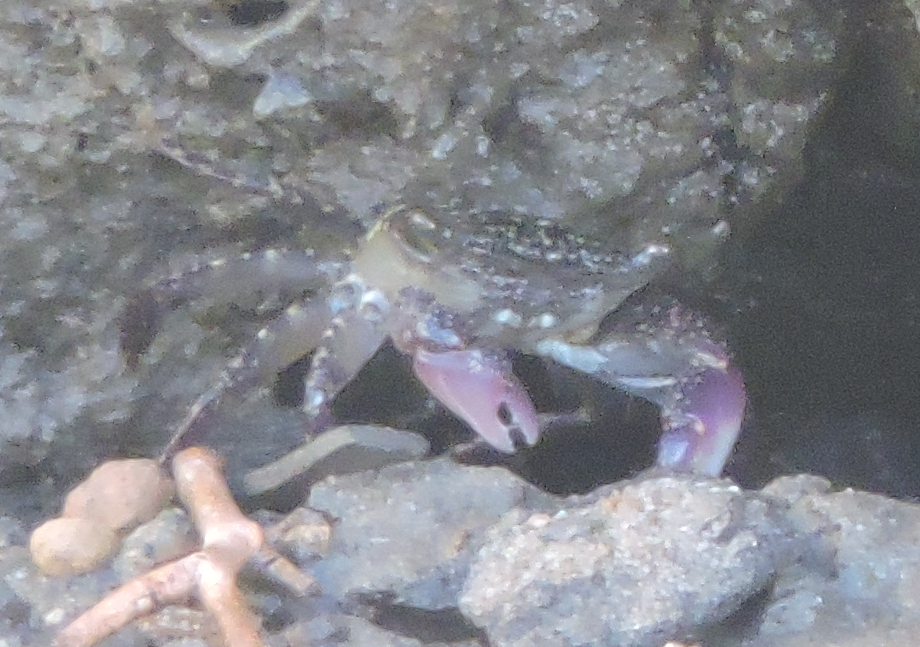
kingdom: Animalia
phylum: Arthropoda
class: Malacostraca
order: Decapoda
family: Grapsidae
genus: Metopograpsus
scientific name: Metopograpsus frontalis
